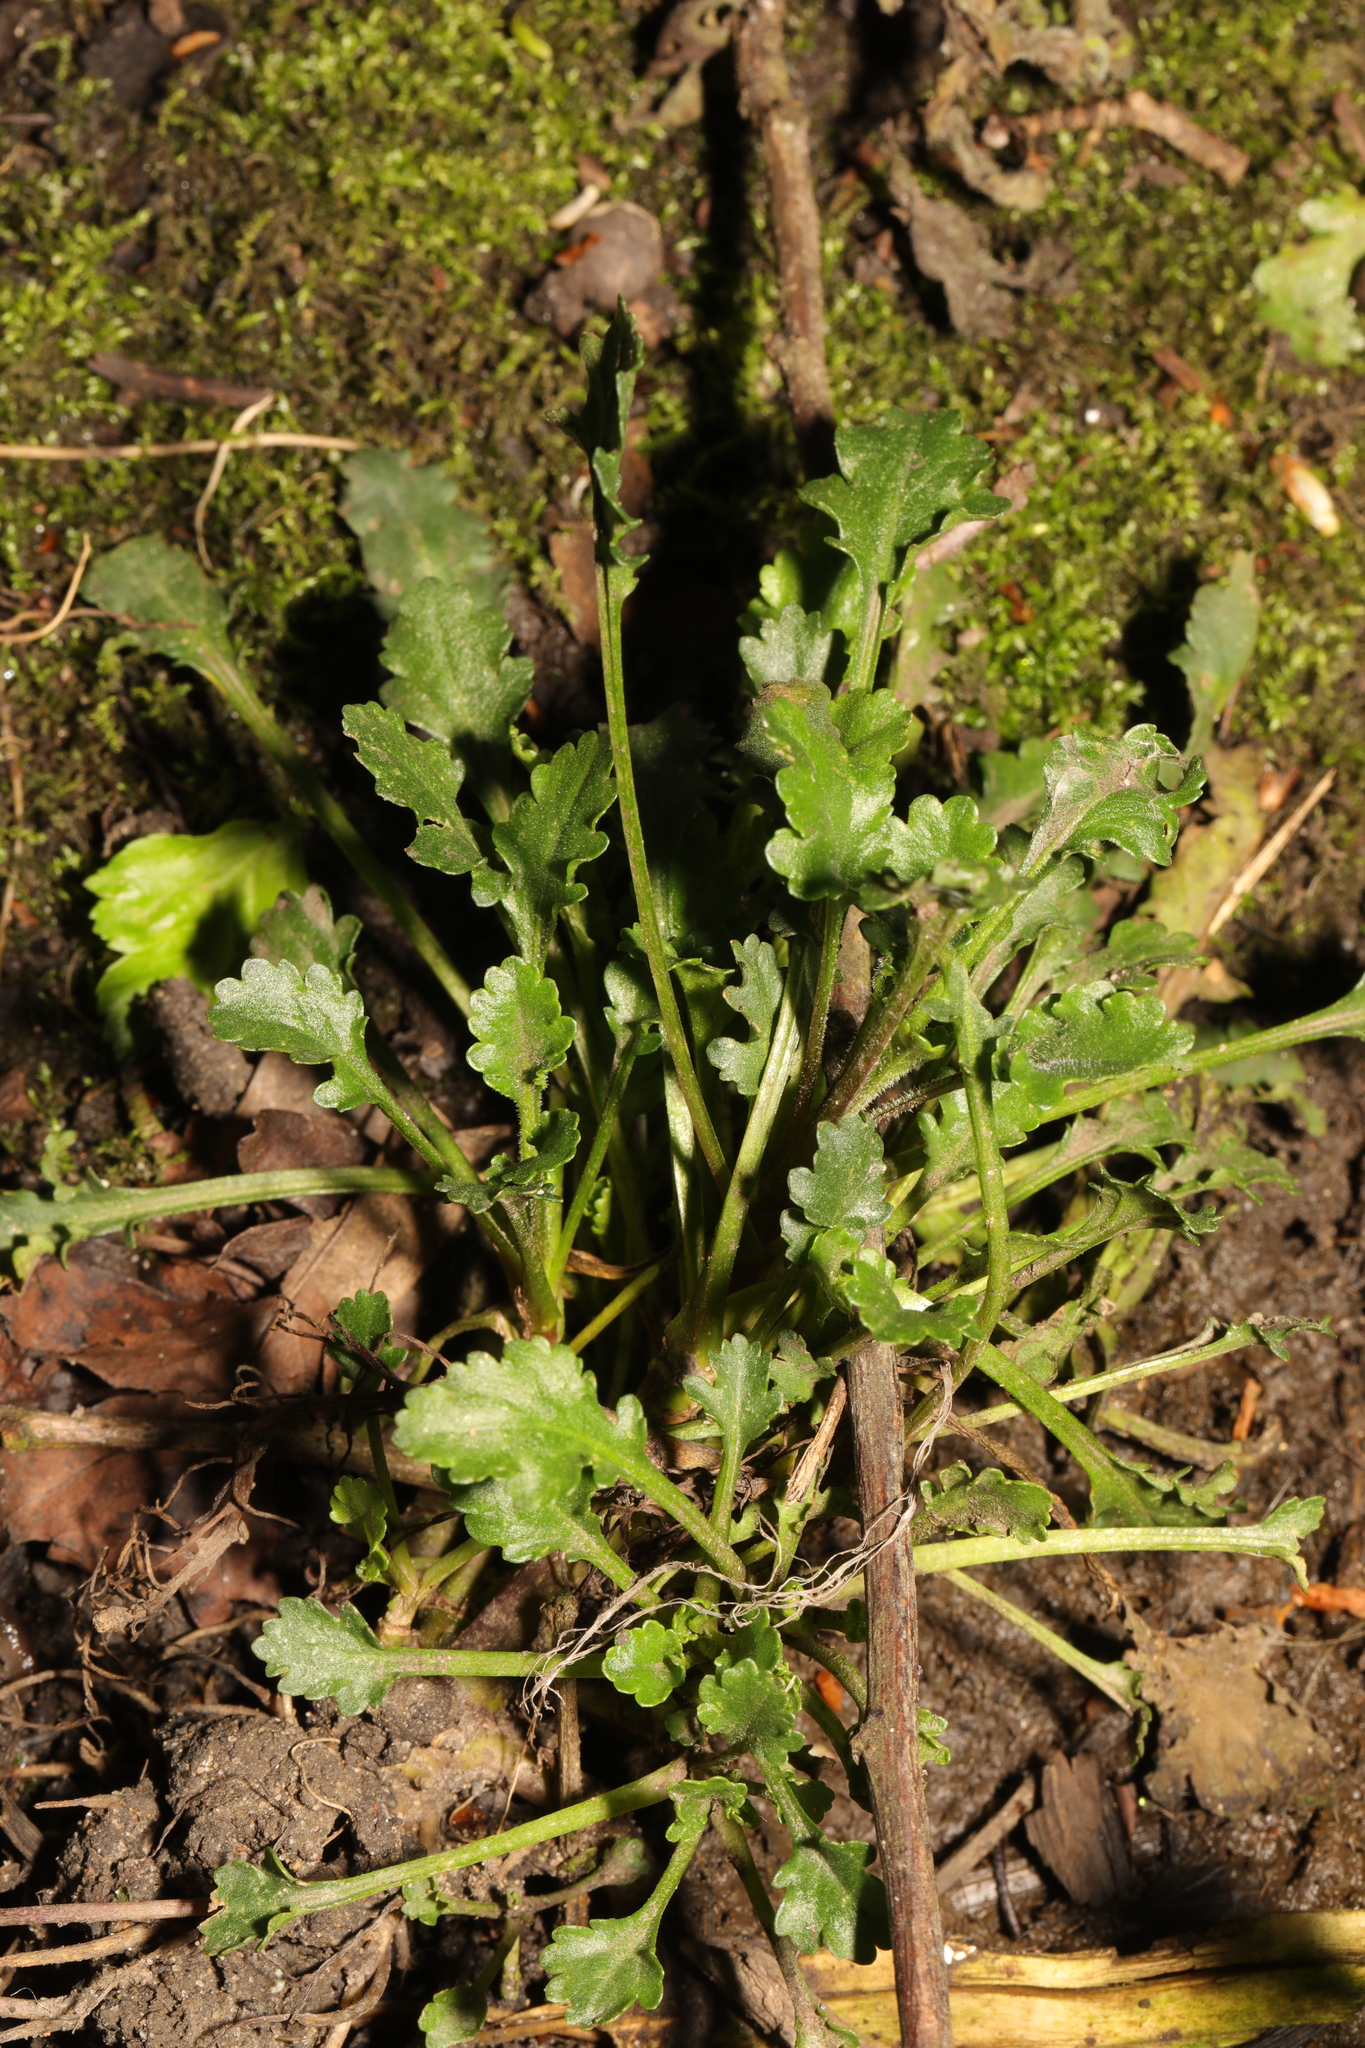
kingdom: Plantae
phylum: Tracheophyta
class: Magnoliopsida
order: Asterales
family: Asteraceae
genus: Leucanthemum
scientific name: Leucanthemum vulgare
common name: Oxeye daisy
